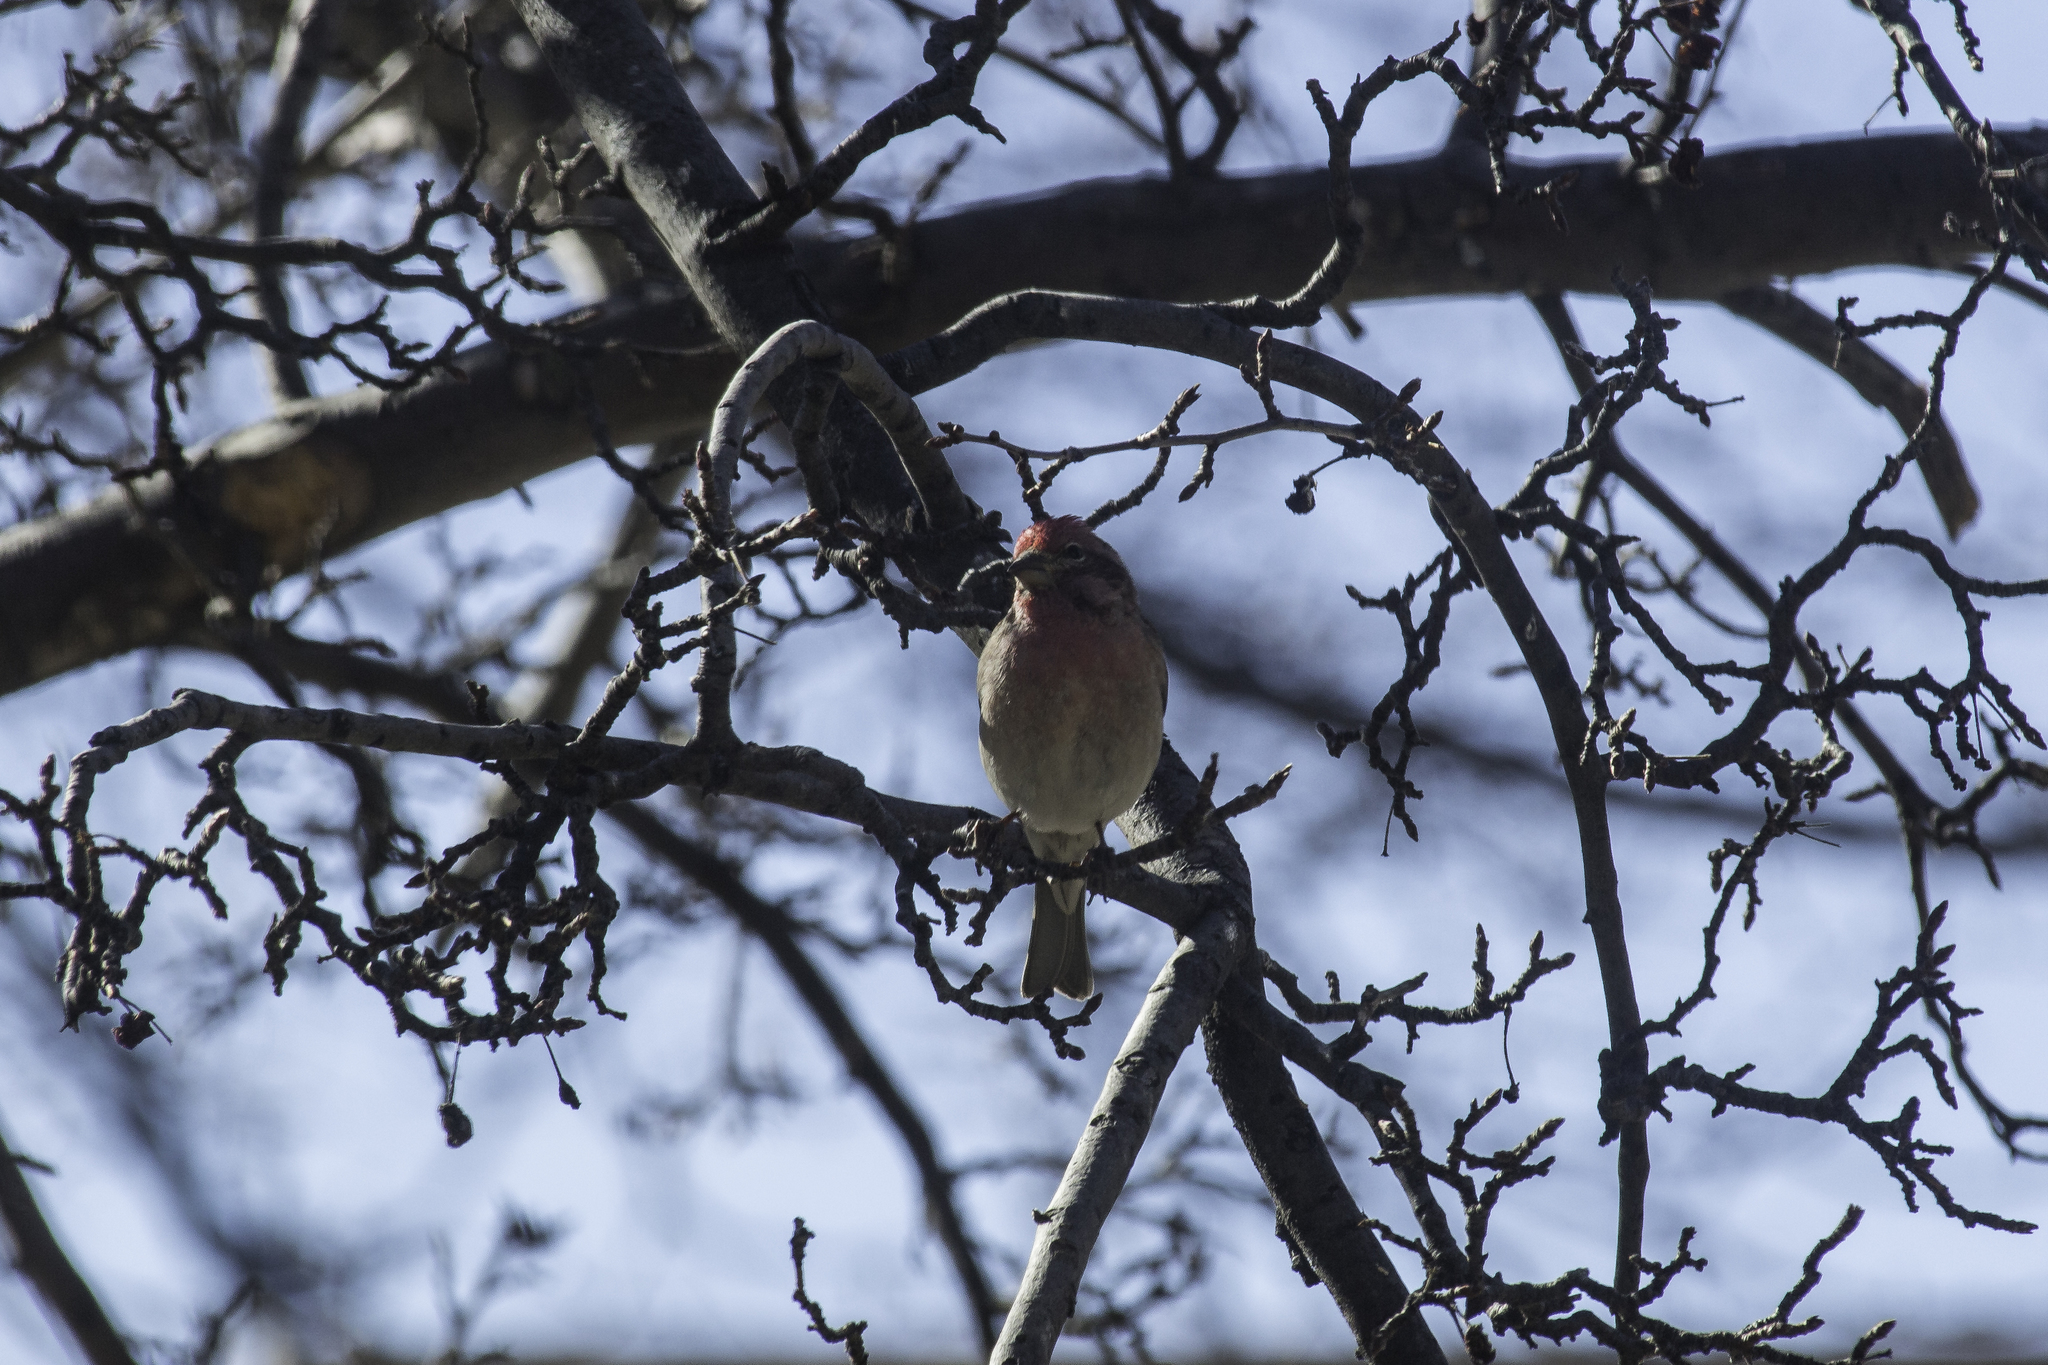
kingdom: Animalia
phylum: Chordata
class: Aves
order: Passeriformes
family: Fringillidae
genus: Haemorhous
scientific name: Haemorhous cassinii
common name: Cassin's finch
